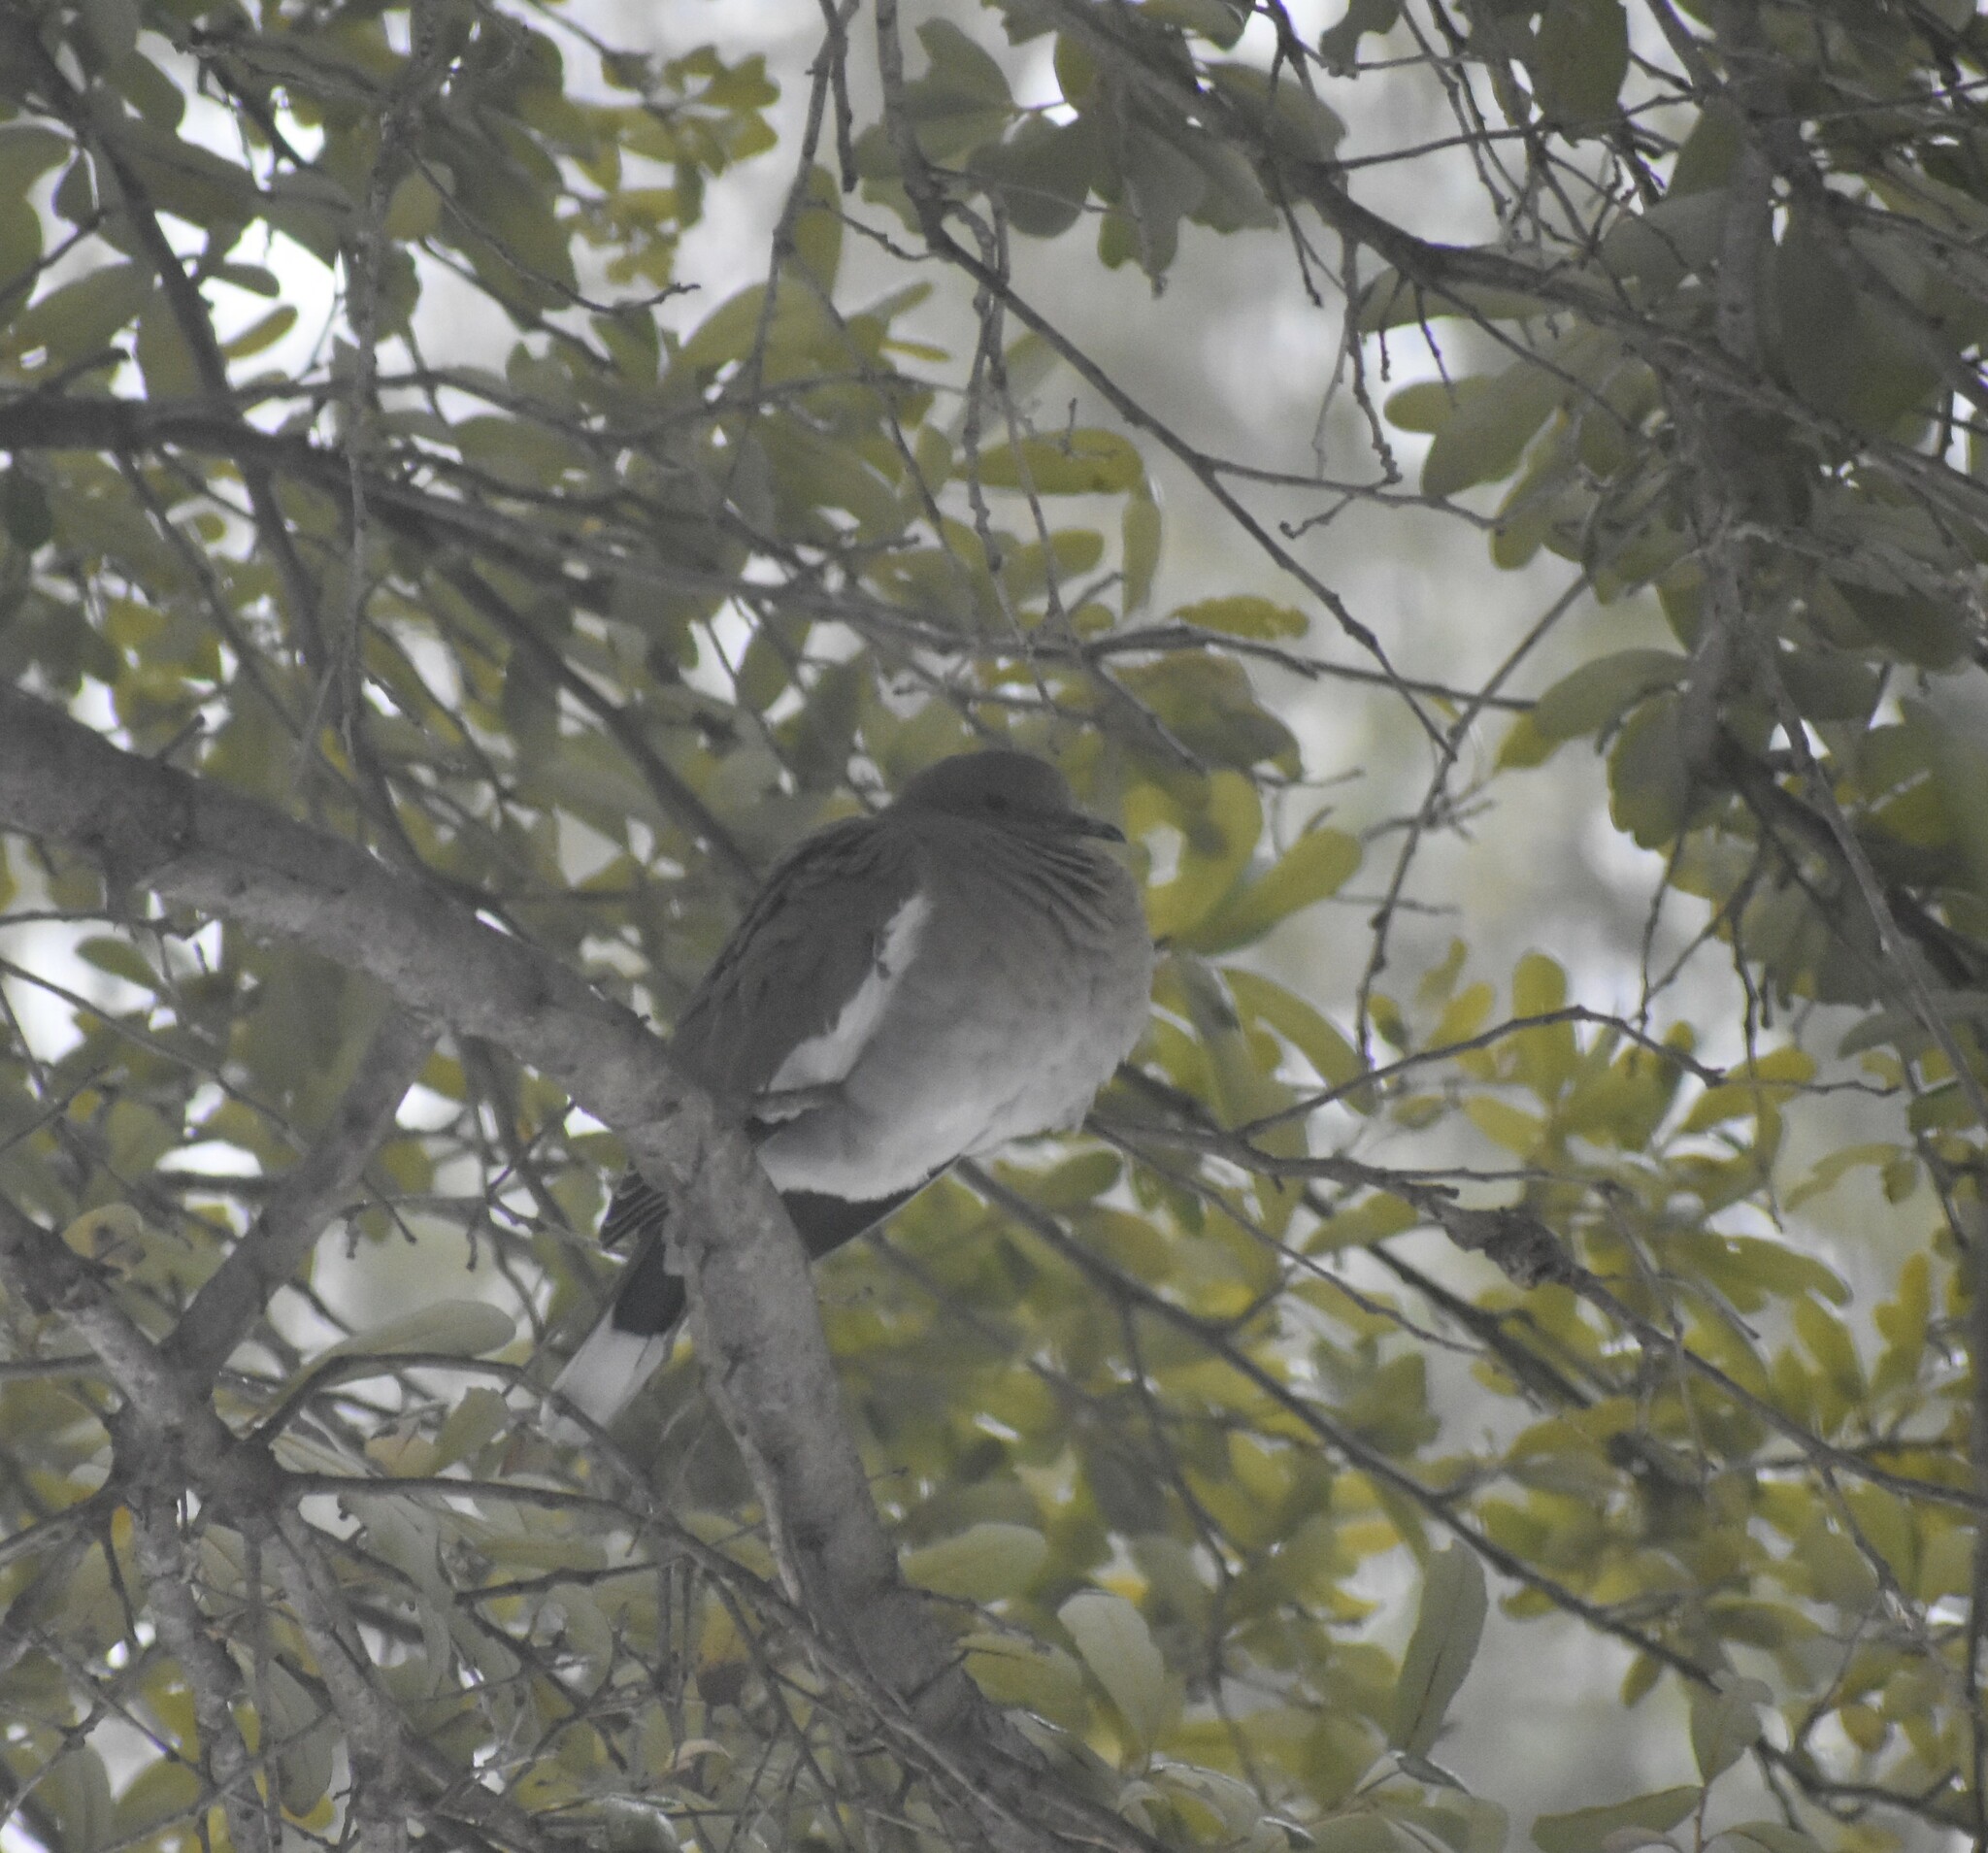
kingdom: Animalia
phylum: Chordata
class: Aves
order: Columbiformes
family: Columbidae
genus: Zenaida
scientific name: Zenaida asiatica
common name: White-winged dove
